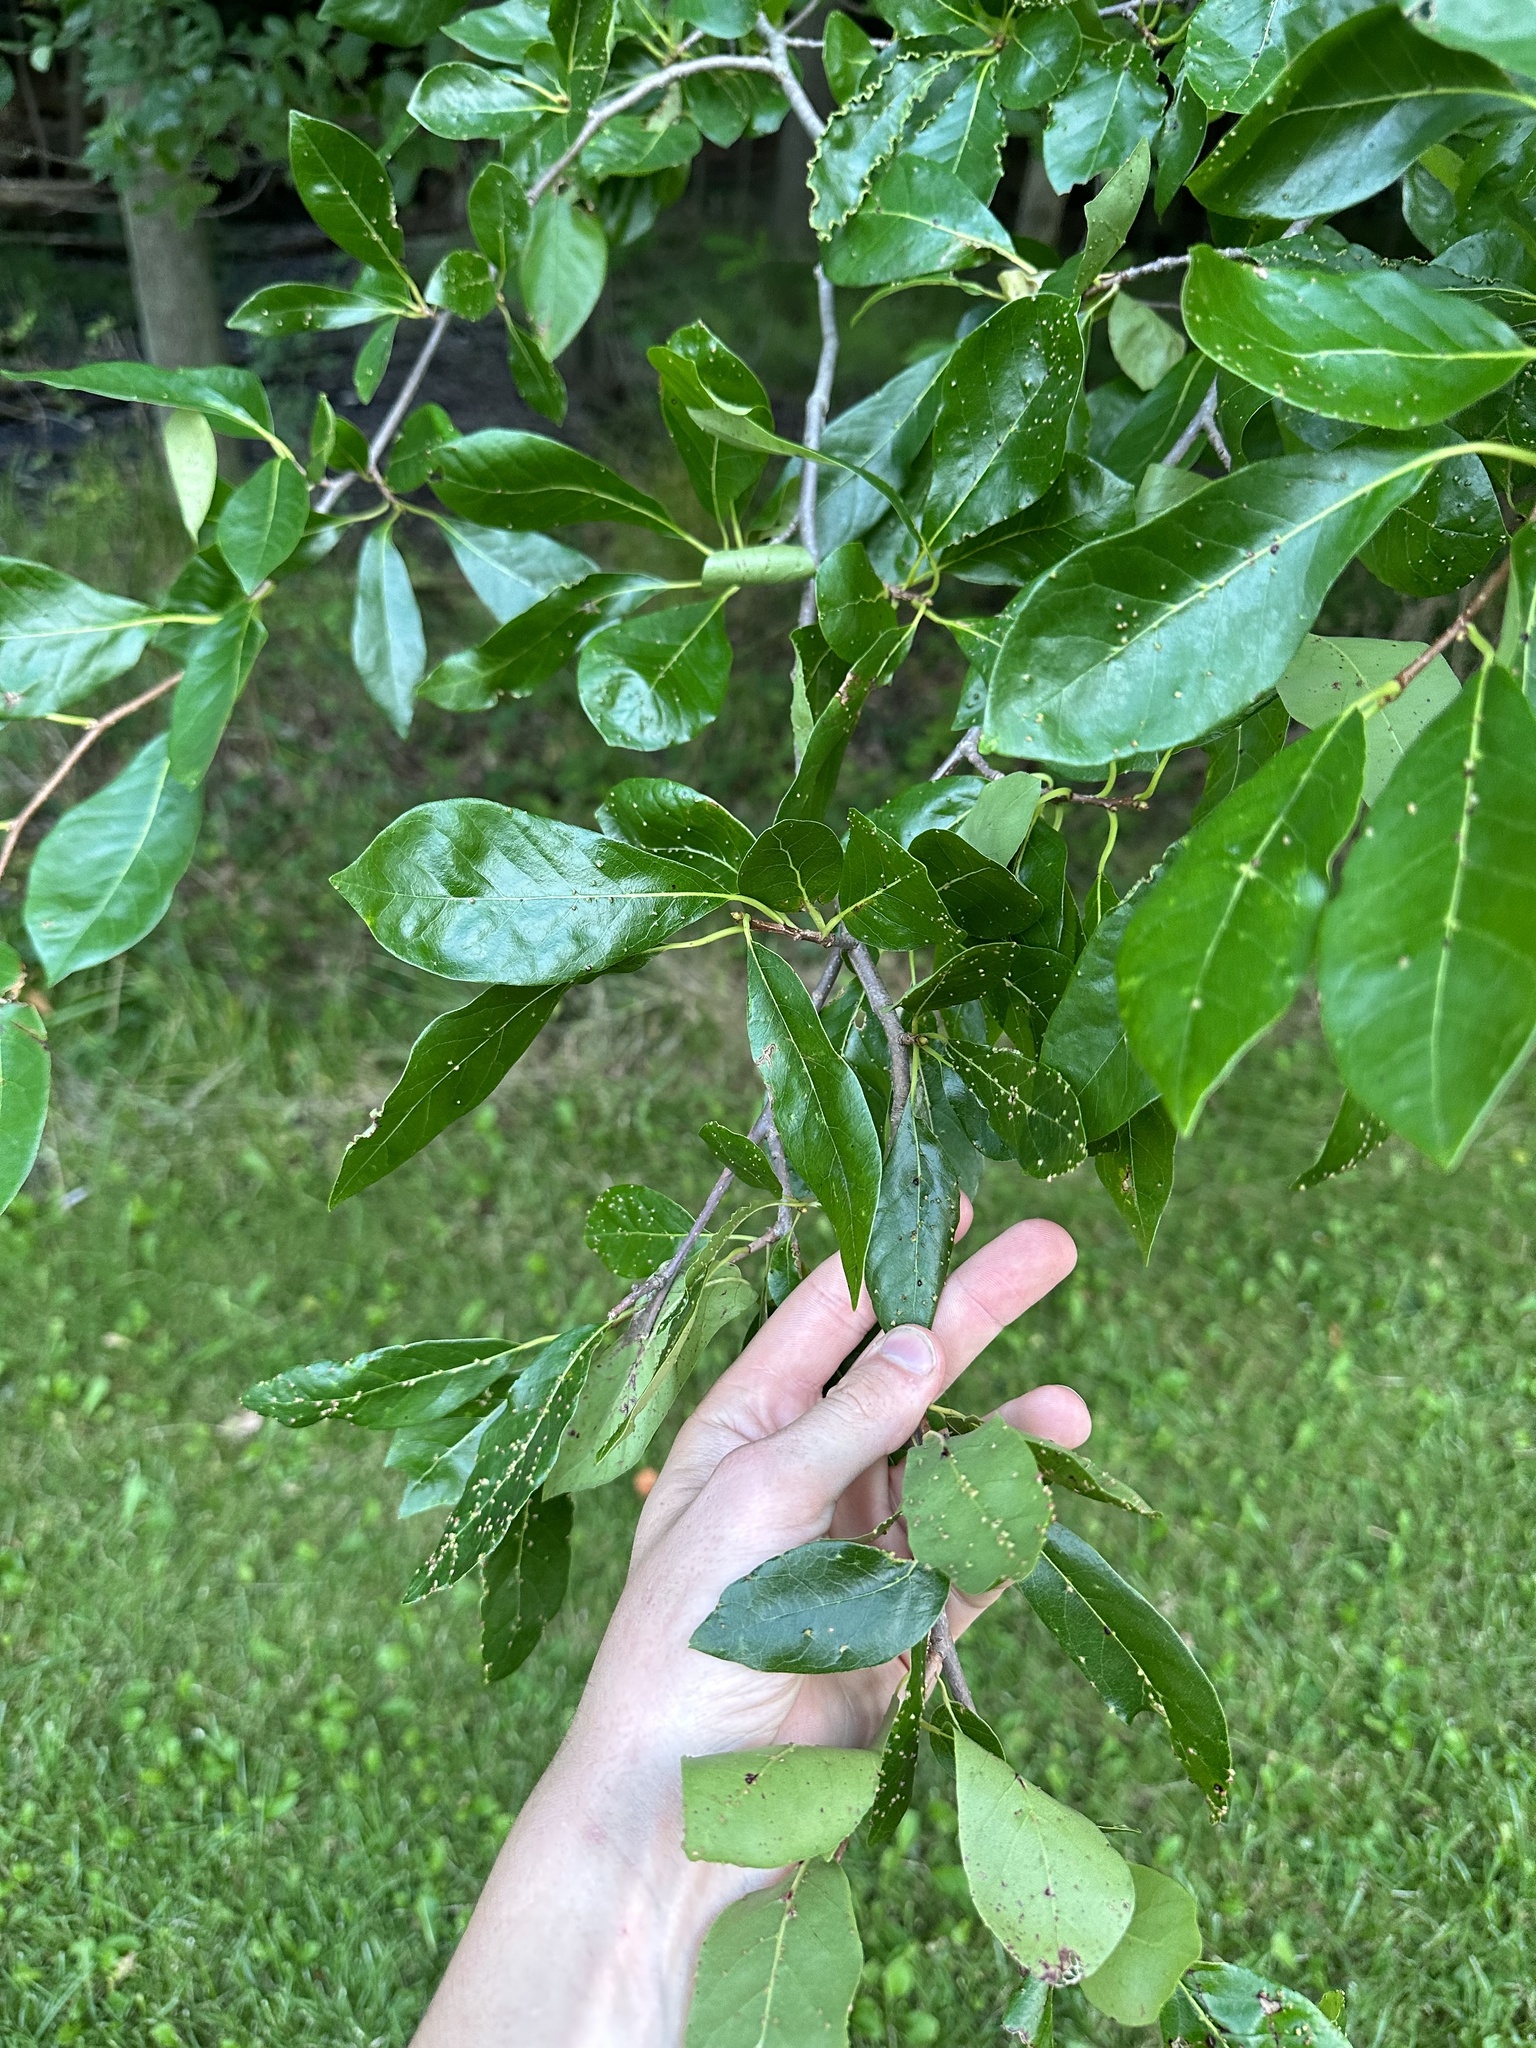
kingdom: Plantae
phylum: Tracheophyta
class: Magnoliopsida
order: Cornales
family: Nyssaceae
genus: Nyssa
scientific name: Nyssa sylvatica
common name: Black tupelo
